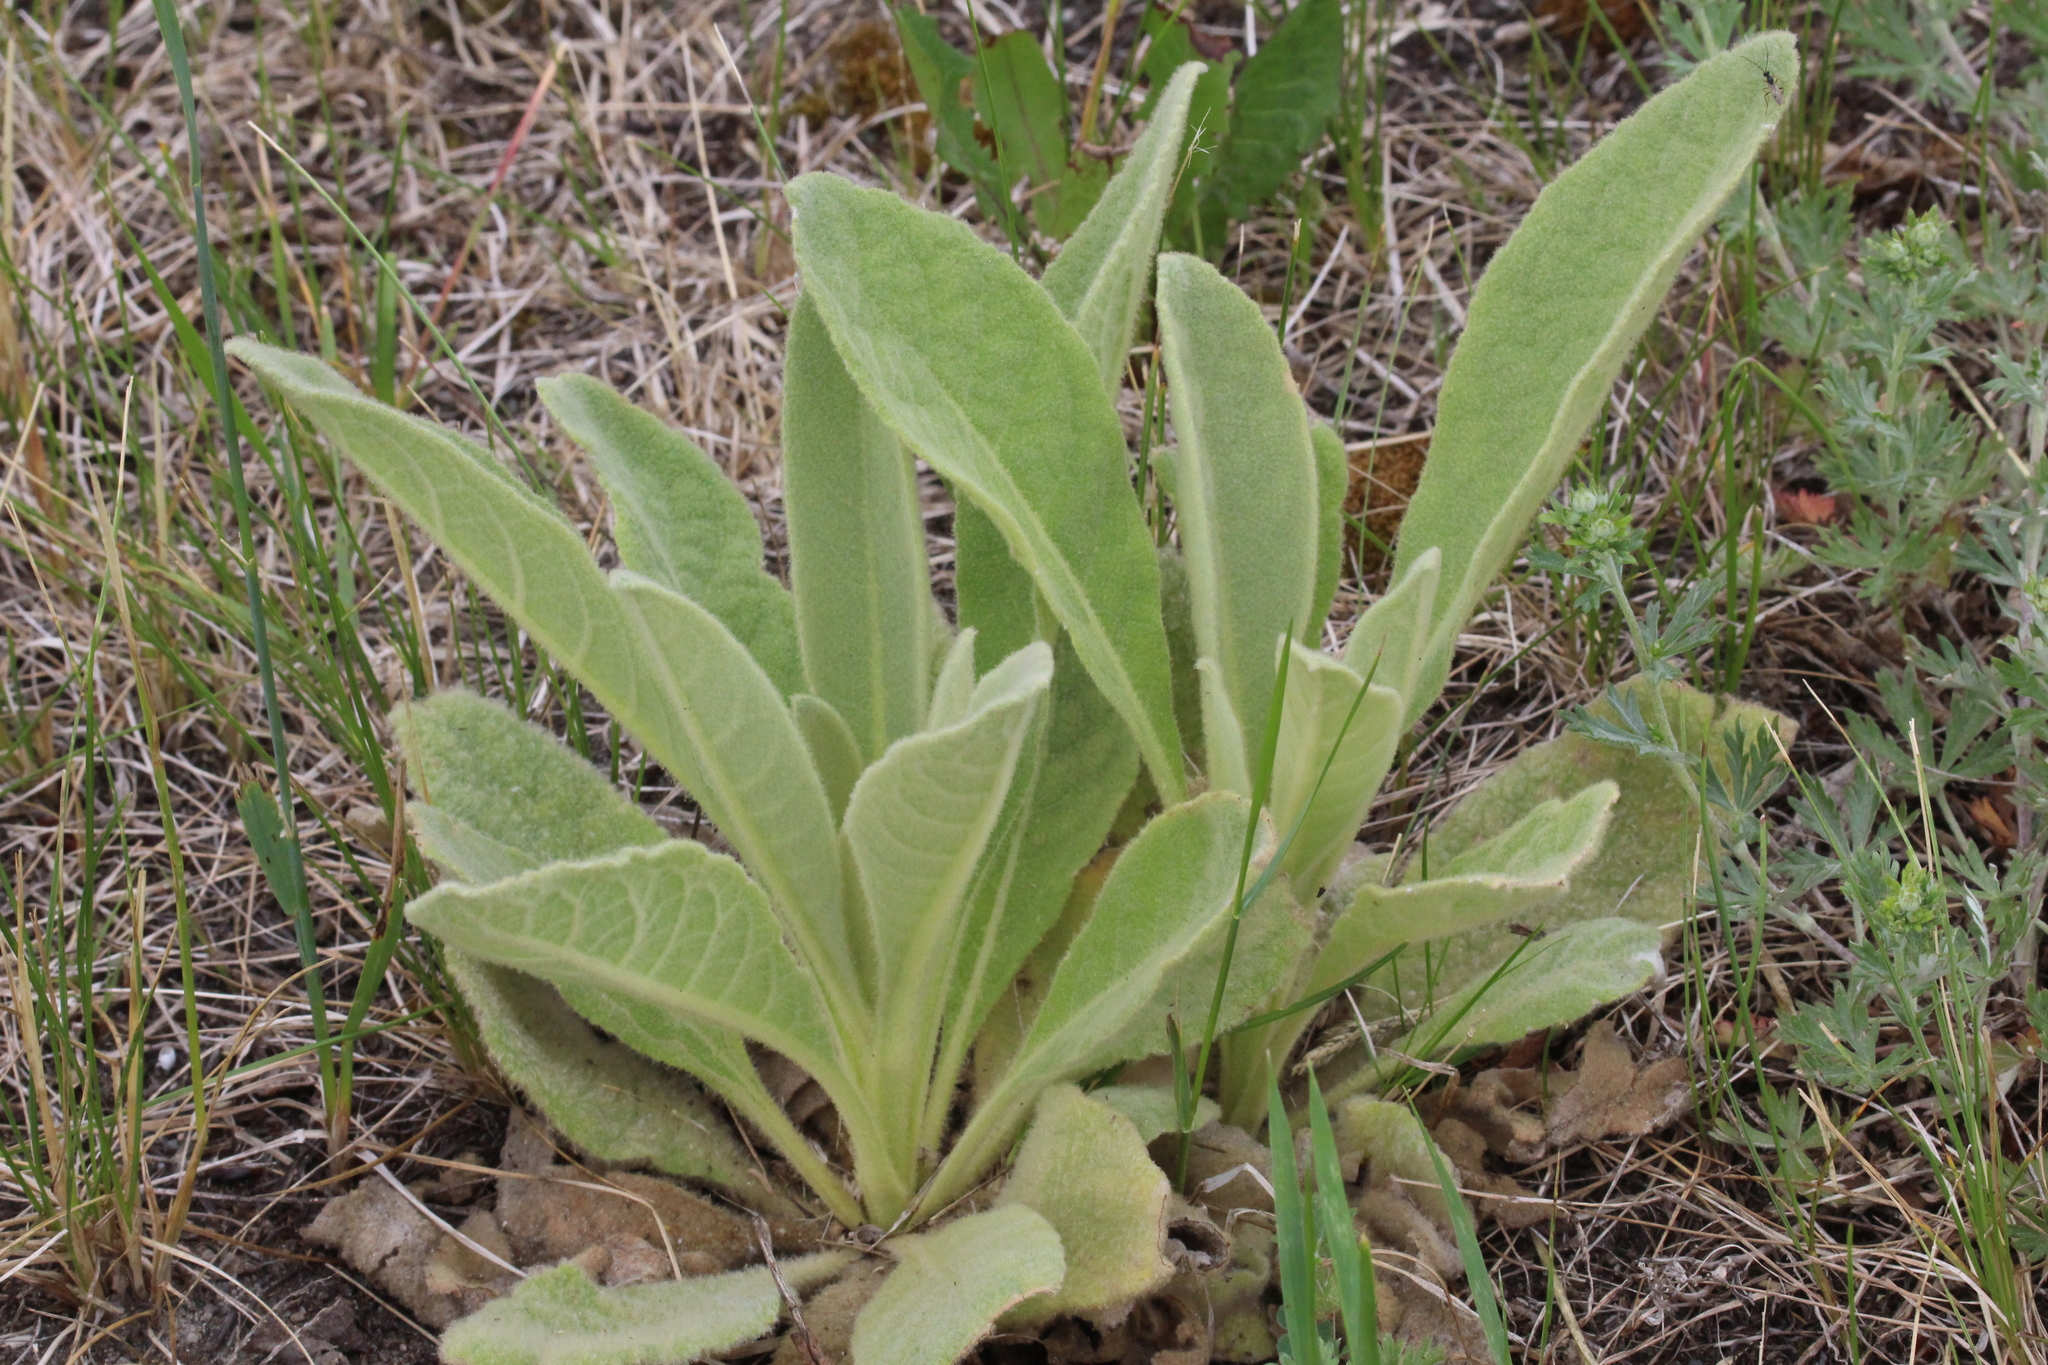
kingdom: Plantae
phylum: Tracheophyta
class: Magnoliopsida
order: Lamiales
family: Scrophulariaceae
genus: Verbascum
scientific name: Verbascum thapsus
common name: Common mullein
